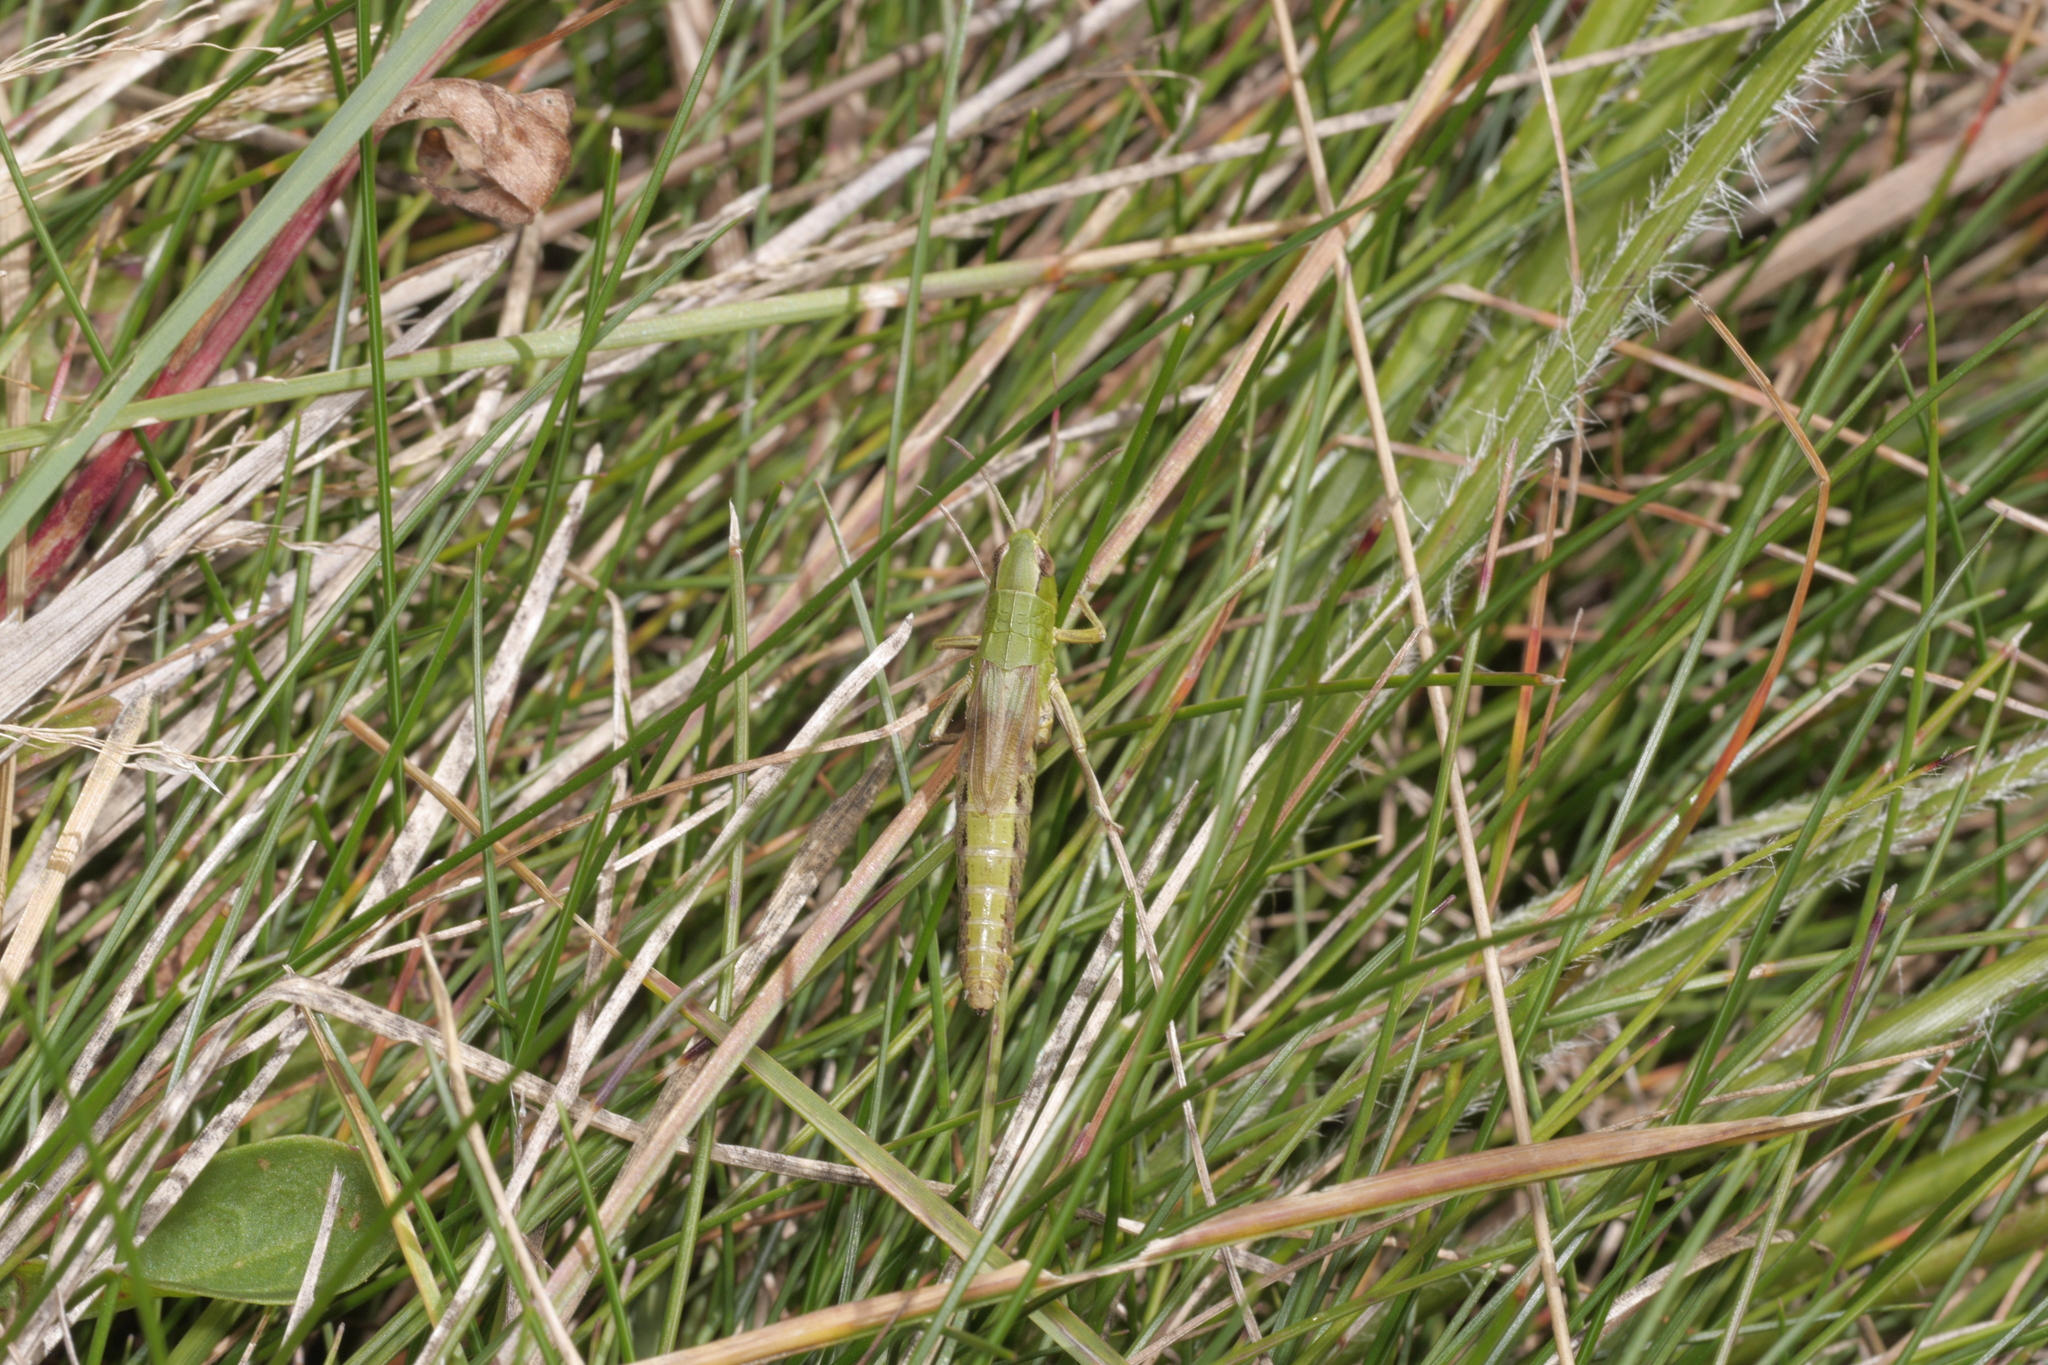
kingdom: Animalia
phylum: Arthropoda
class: Insecta
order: Orthoptera
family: Acrididae
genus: Pseudochorthippus
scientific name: Pseudochorthippus parallelus
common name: Meadow grasshopper
